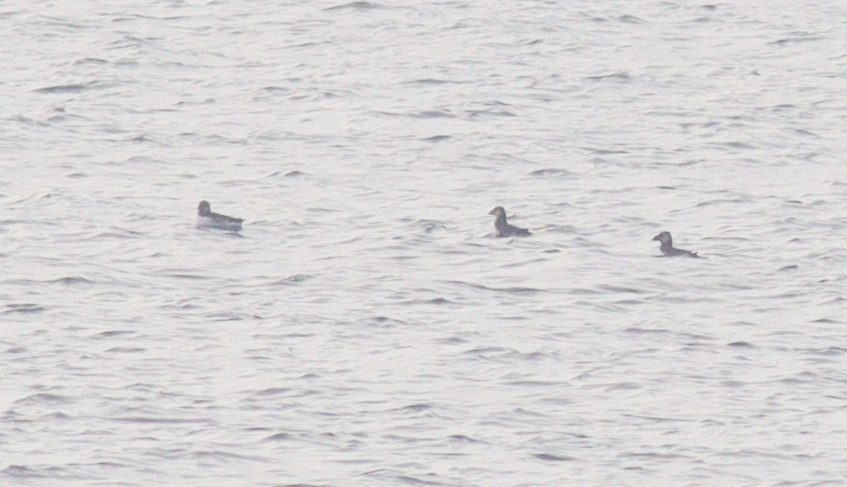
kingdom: Animalia
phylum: Chordata
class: Aves
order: Charadriiformes
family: Alcidae
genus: Fratercula
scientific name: Fratercula arctica
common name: Atlantic puffin
